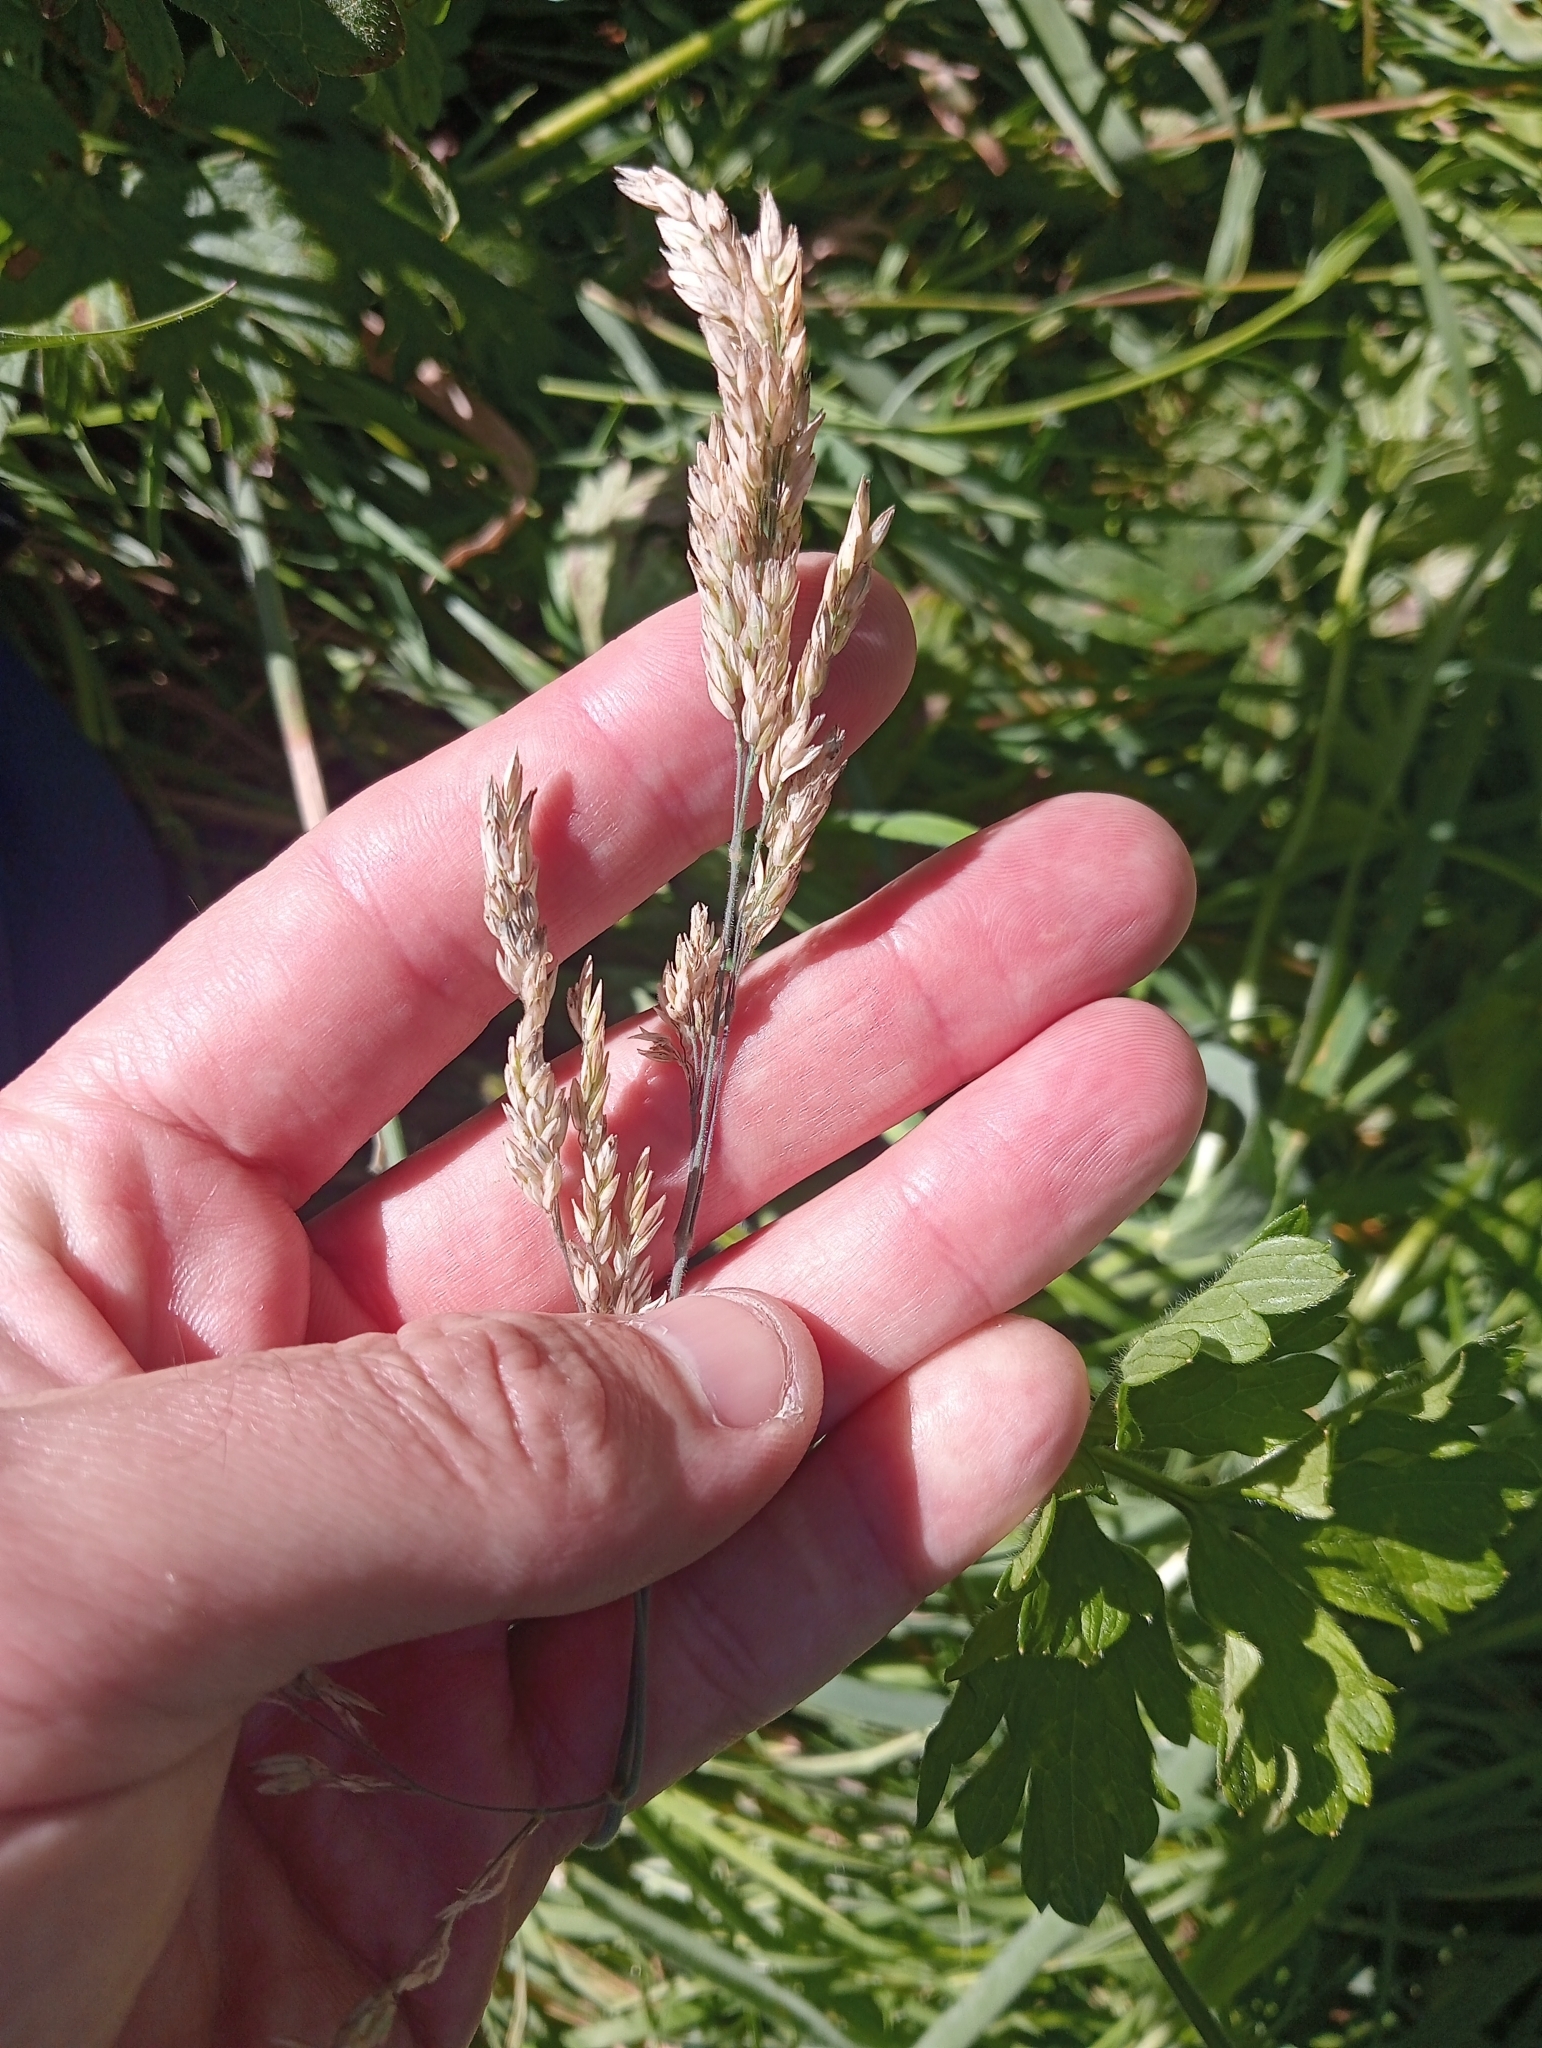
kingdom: Plantae
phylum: Tracheophyta
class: Liliopsida
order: Poales
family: Poaceae
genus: Holcus
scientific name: Holcus lanatus
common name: Yorkshire-fog
